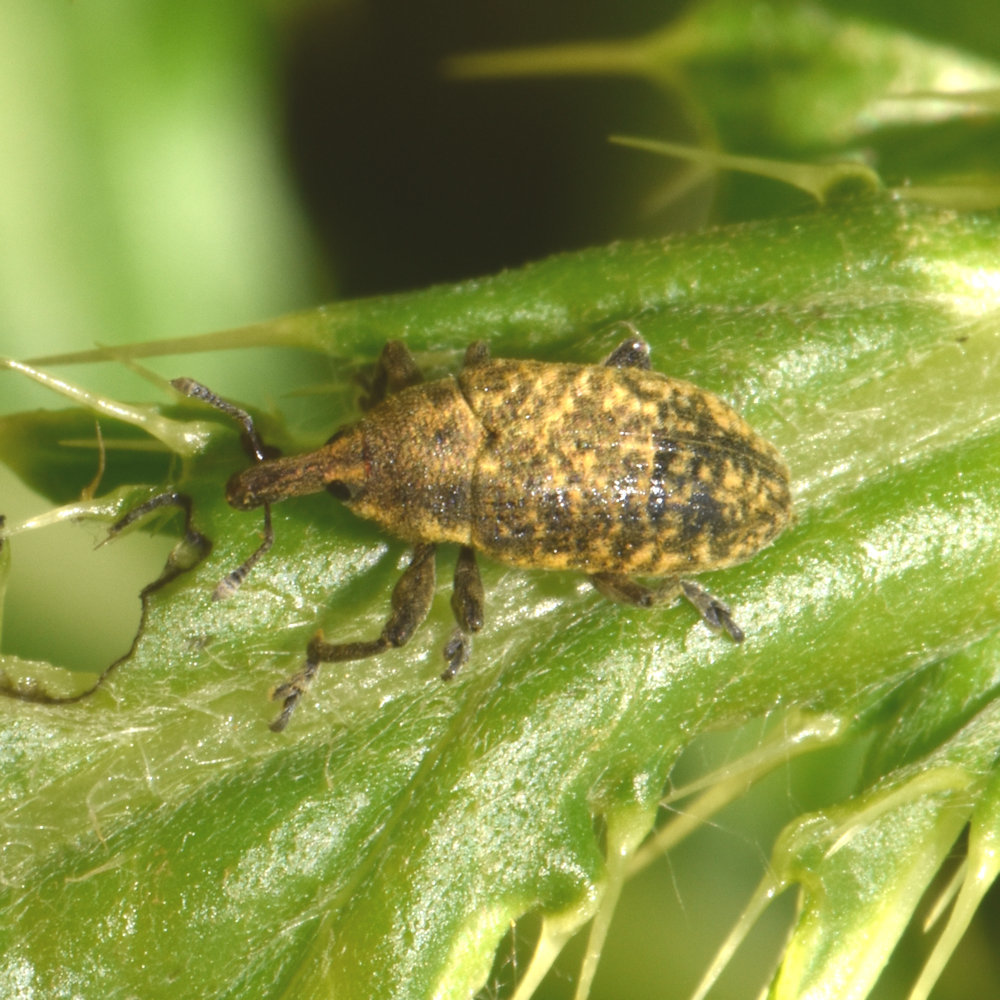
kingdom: Animalia
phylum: Arthropoda
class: Insecta
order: Coleoptera
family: Curculionidae
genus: Larinus
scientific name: Larinus carlinae
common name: Weevil
